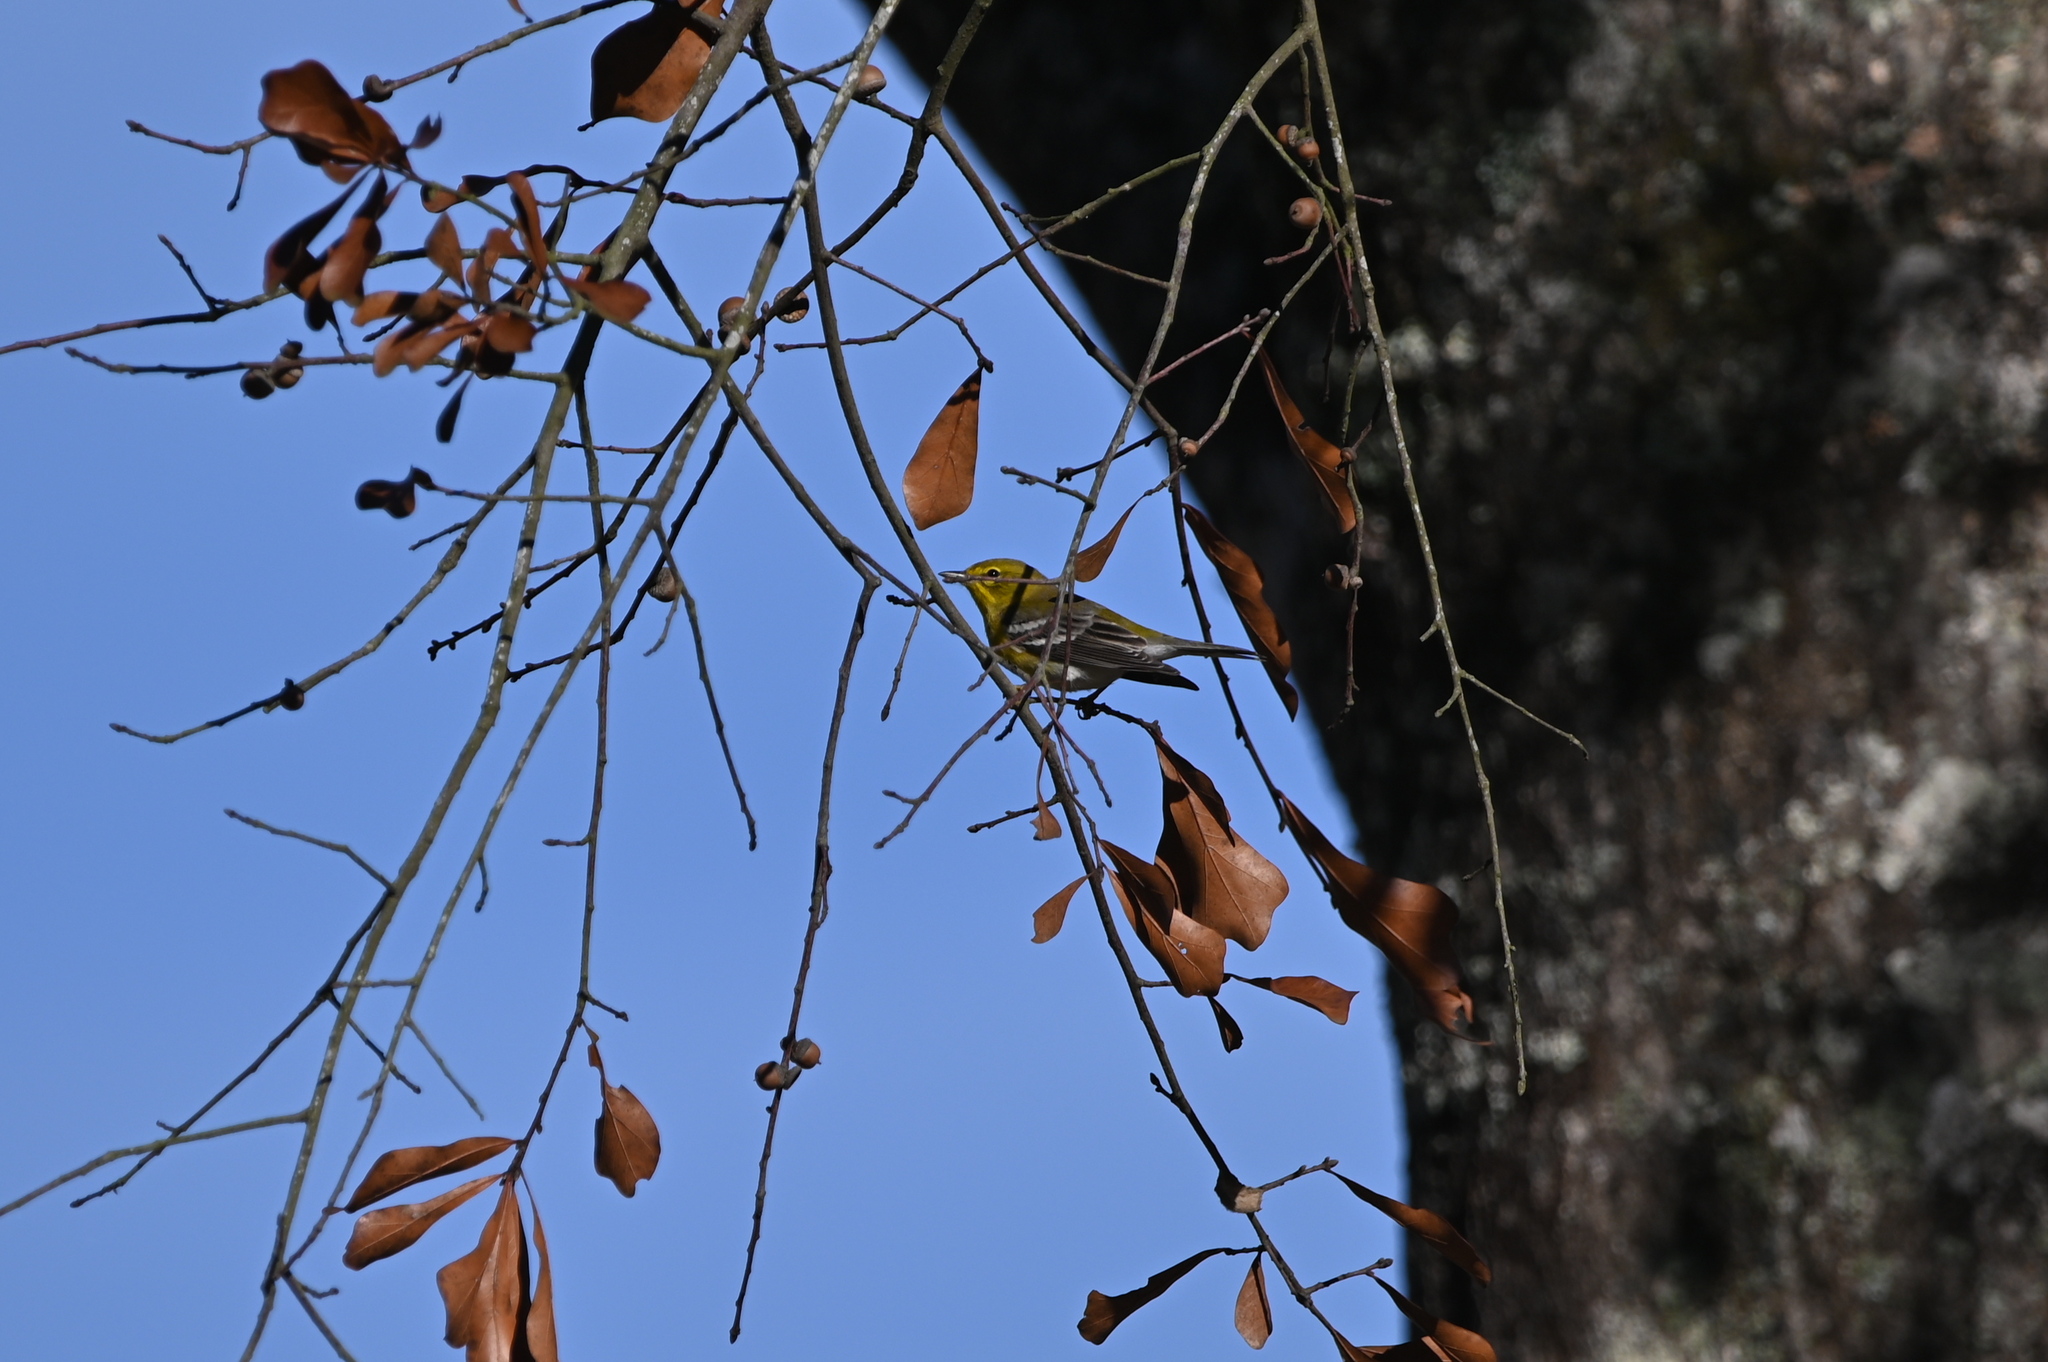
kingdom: Animalia
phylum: Chordata
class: Aves
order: Passeriformes
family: Parulidae
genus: Setophaga
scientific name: Setophaga pinus
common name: Pine warbler
